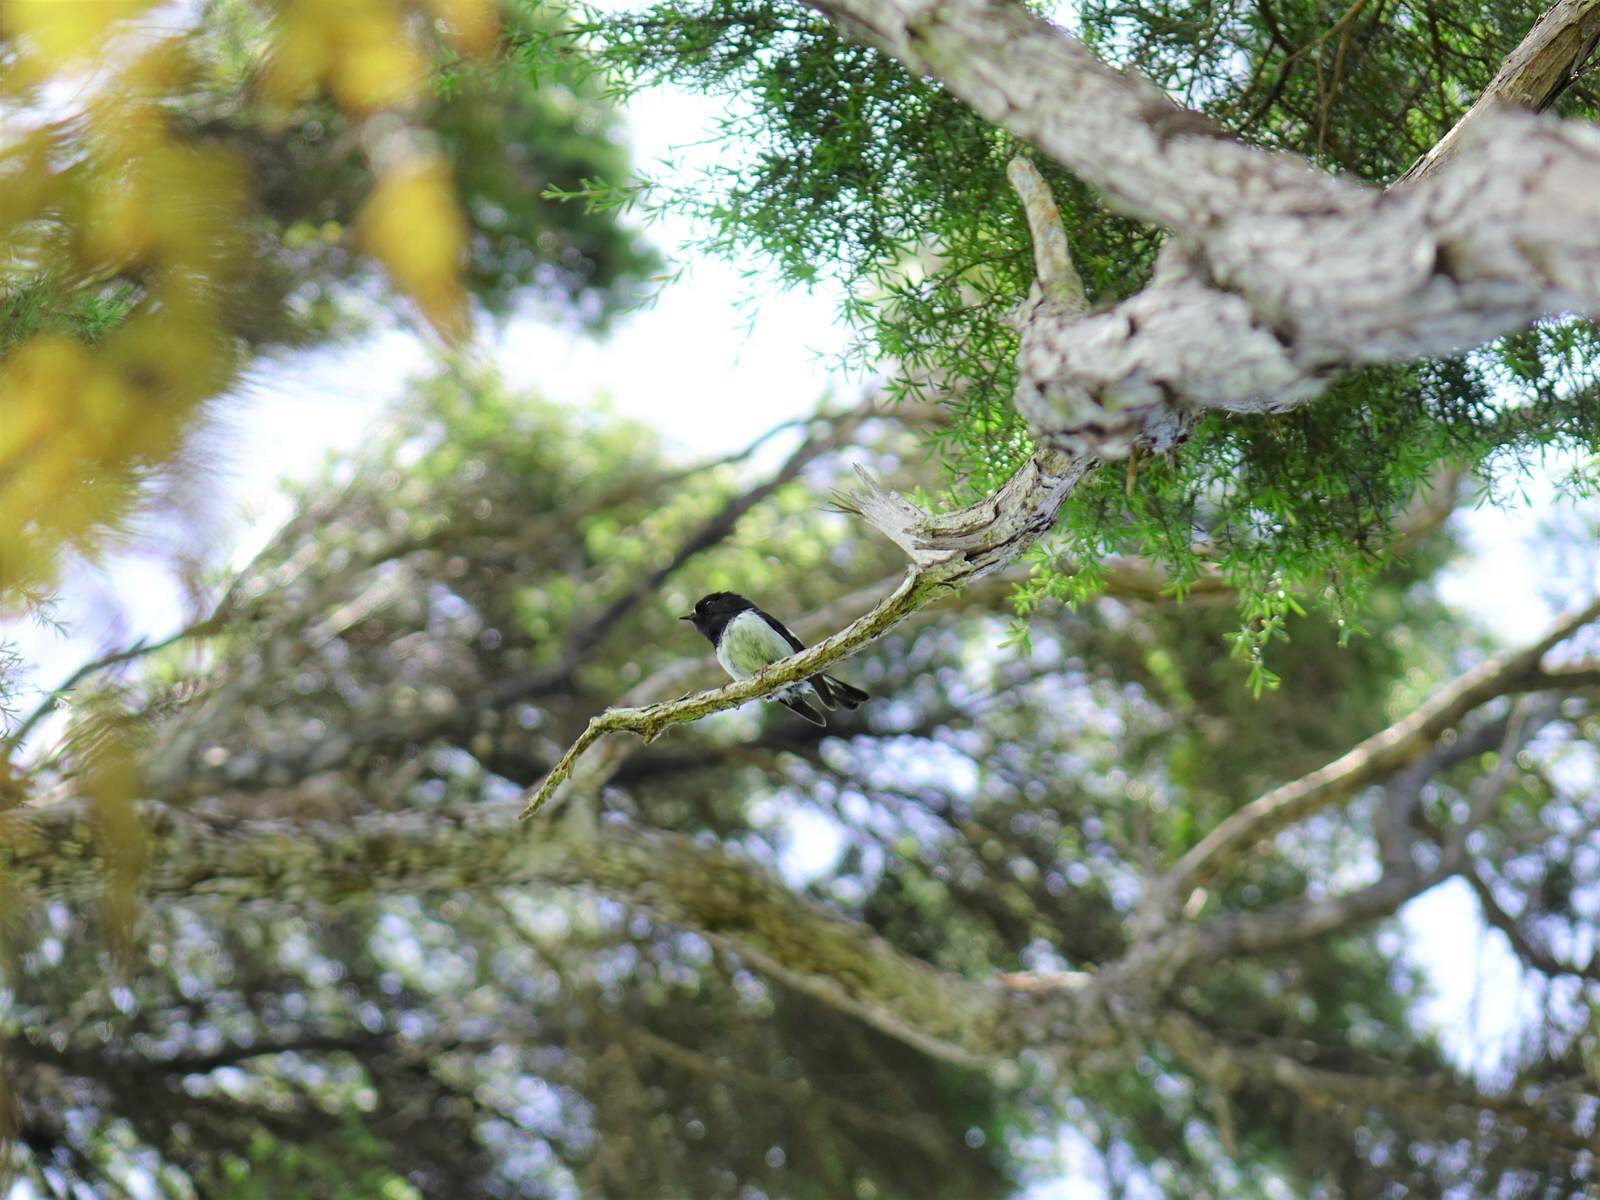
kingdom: Animalia
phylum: Chordata
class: Aves
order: Passeriformes
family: Petroicidae
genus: Petroica
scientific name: Petroica macrocephala
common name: Tomtit
